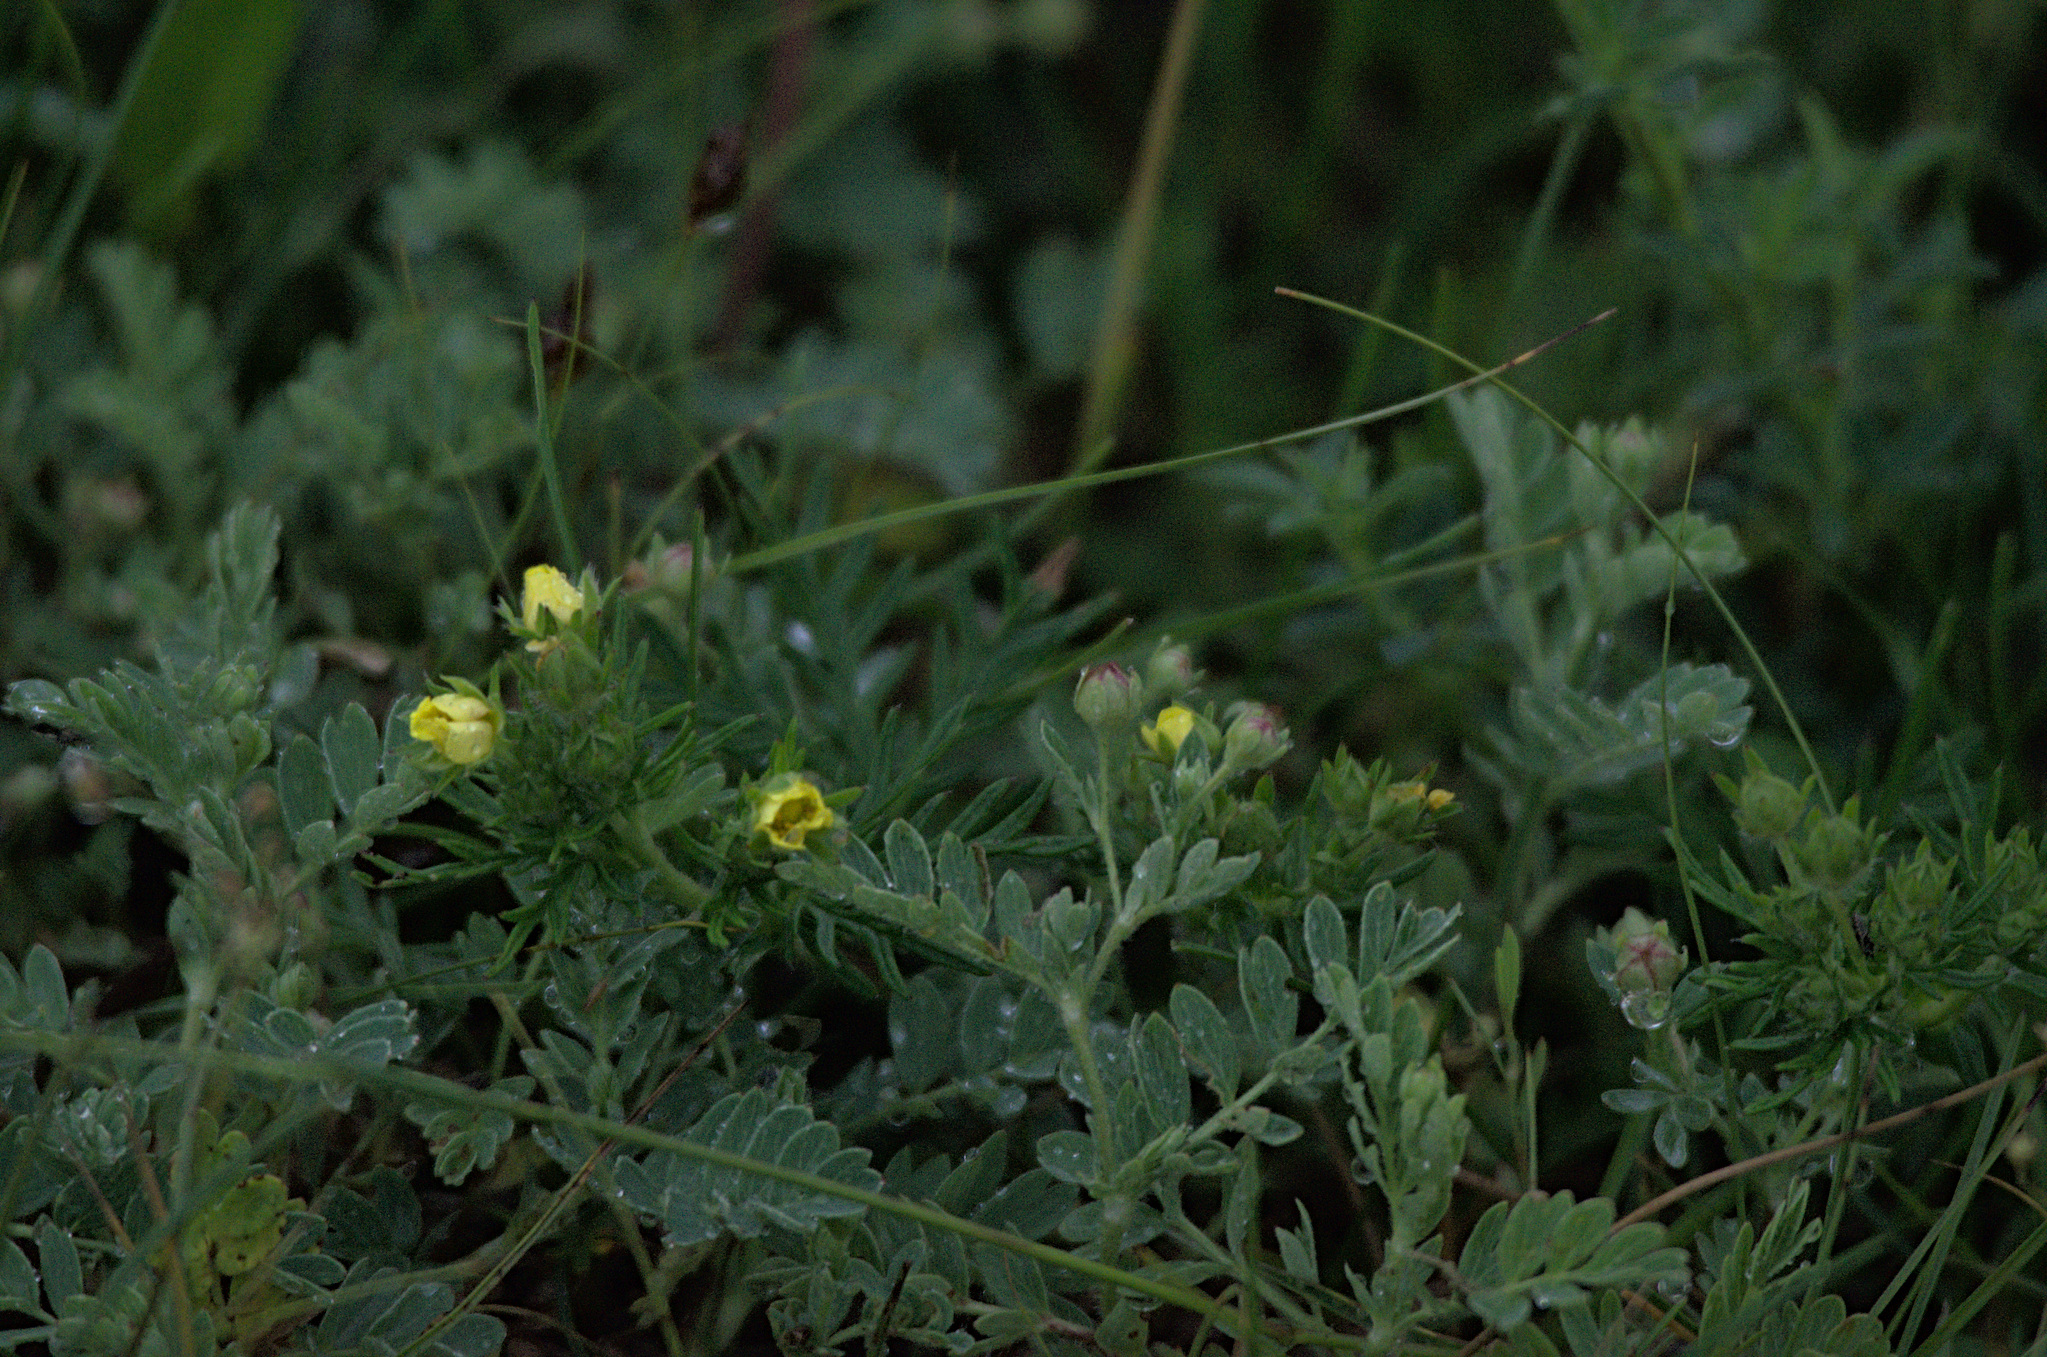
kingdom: Plantae
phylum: Tracheophyta
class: Magnoliopsida
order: Rosales
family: Rosaceae
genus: Sibbaldianthe
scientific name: Sibbaldianthe bifurca
